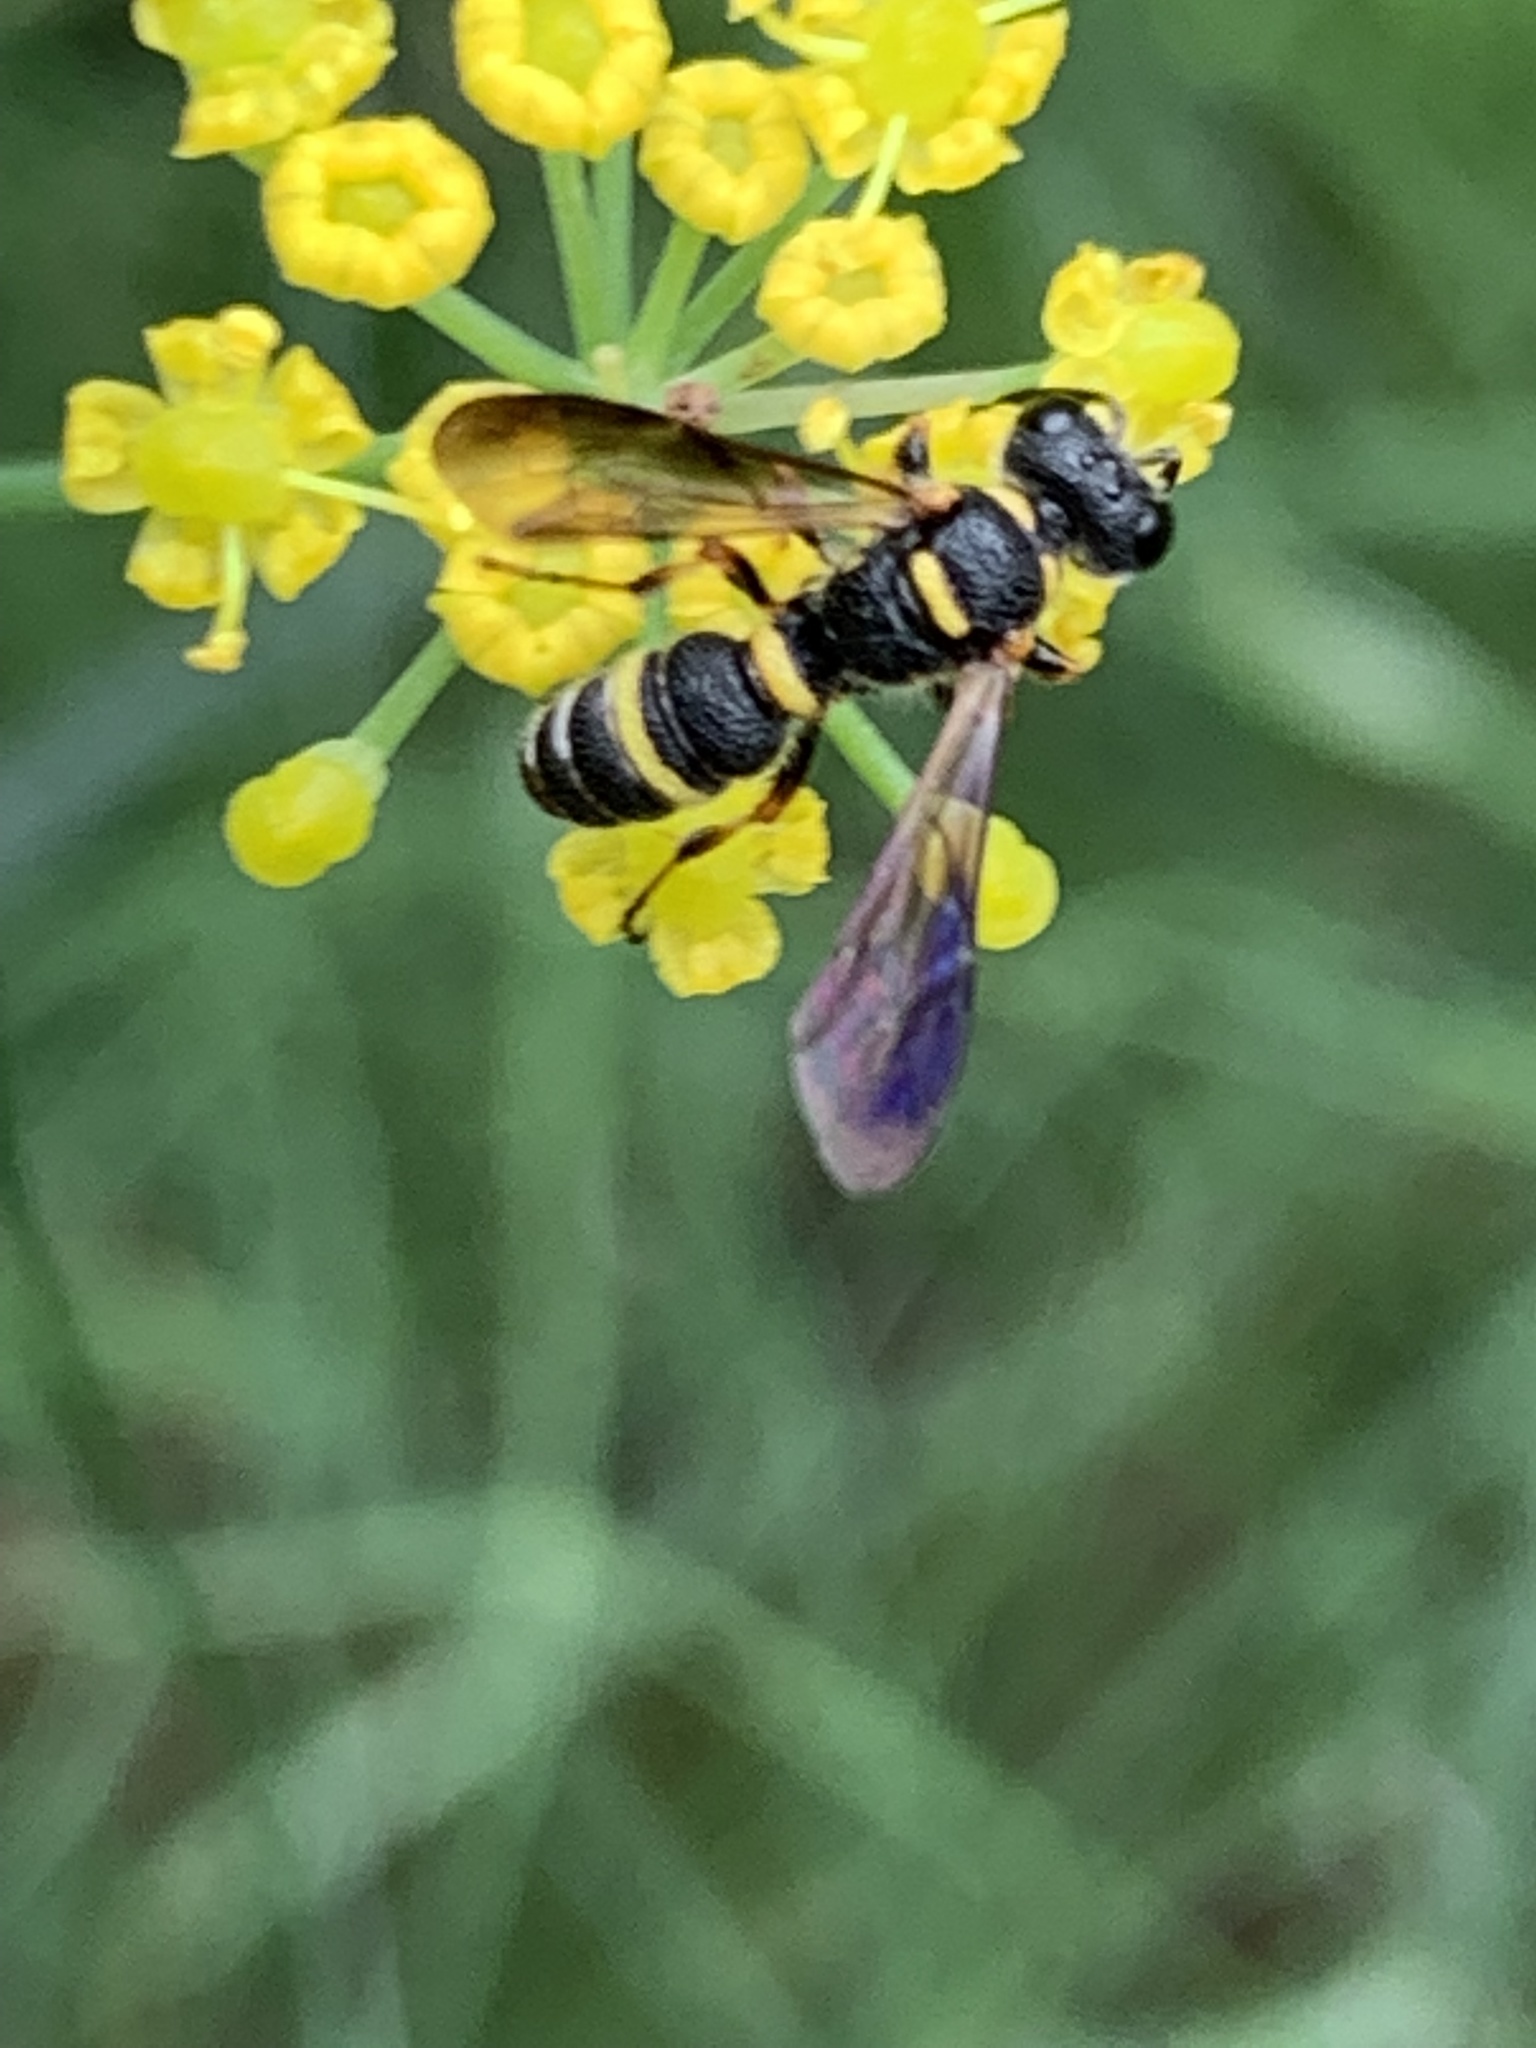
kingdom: Animalia
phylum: Arthropoda
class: Insecta
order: Hymenoptera
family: Crabronidae
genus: Cerceris
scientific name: Cerceris insolita
